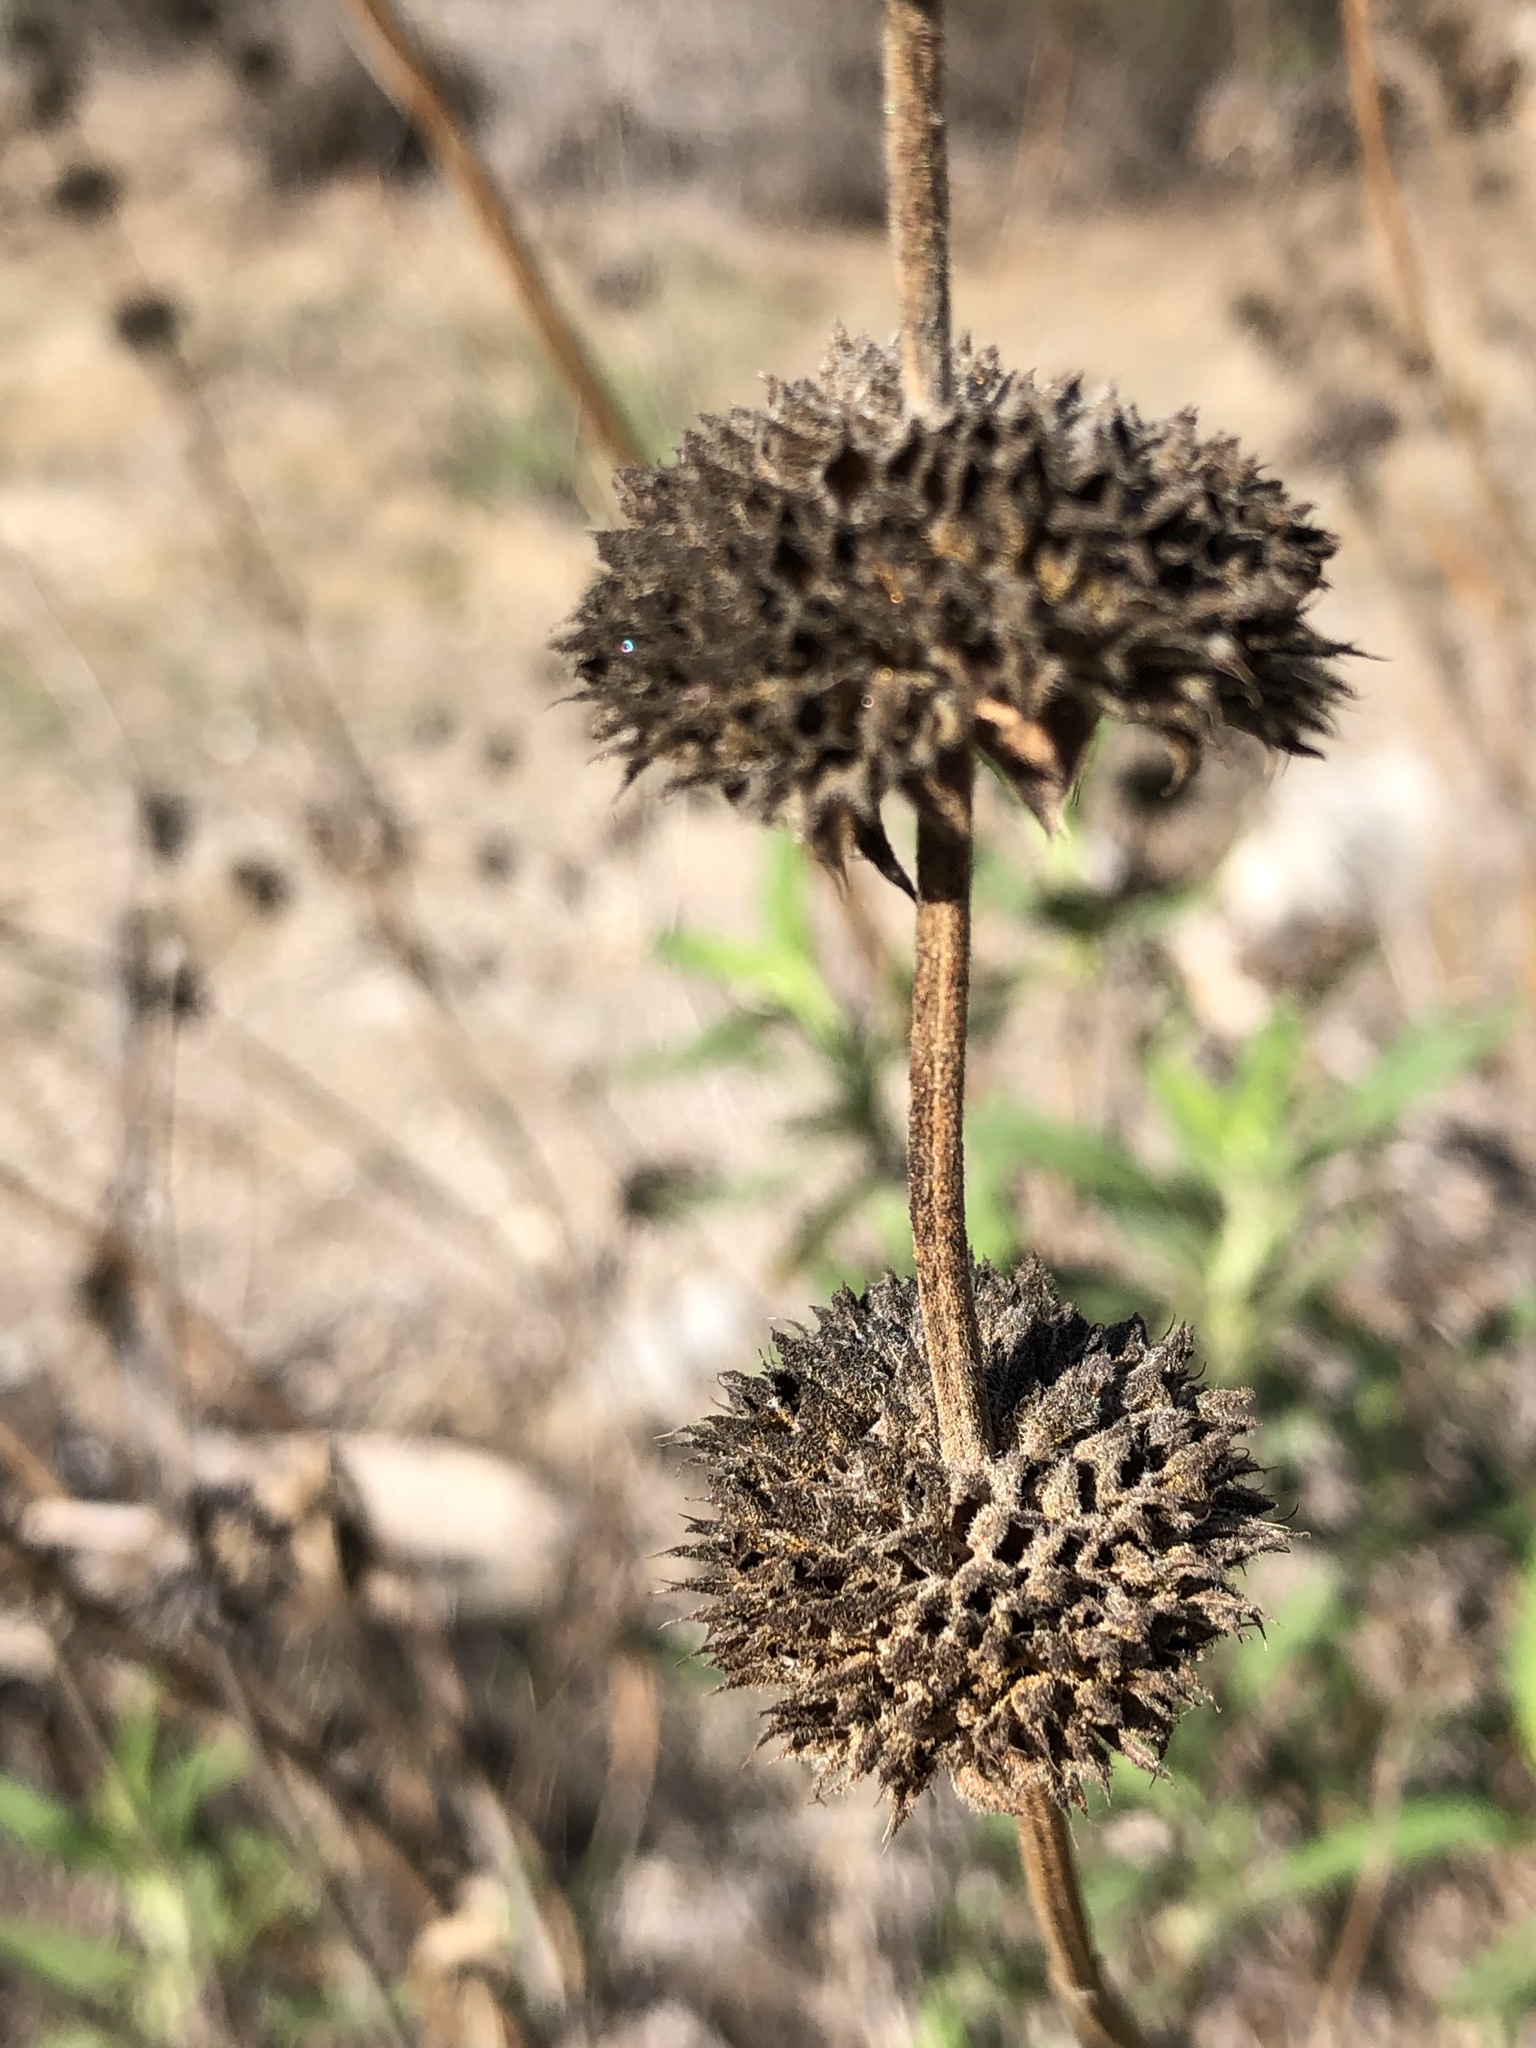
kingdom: Plantae
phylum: Tracheophyta
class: Magnoliopsida
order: Lamiales
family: Lamiaceae
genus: Salvia
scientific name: Salvia mellifera
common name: Black sage
